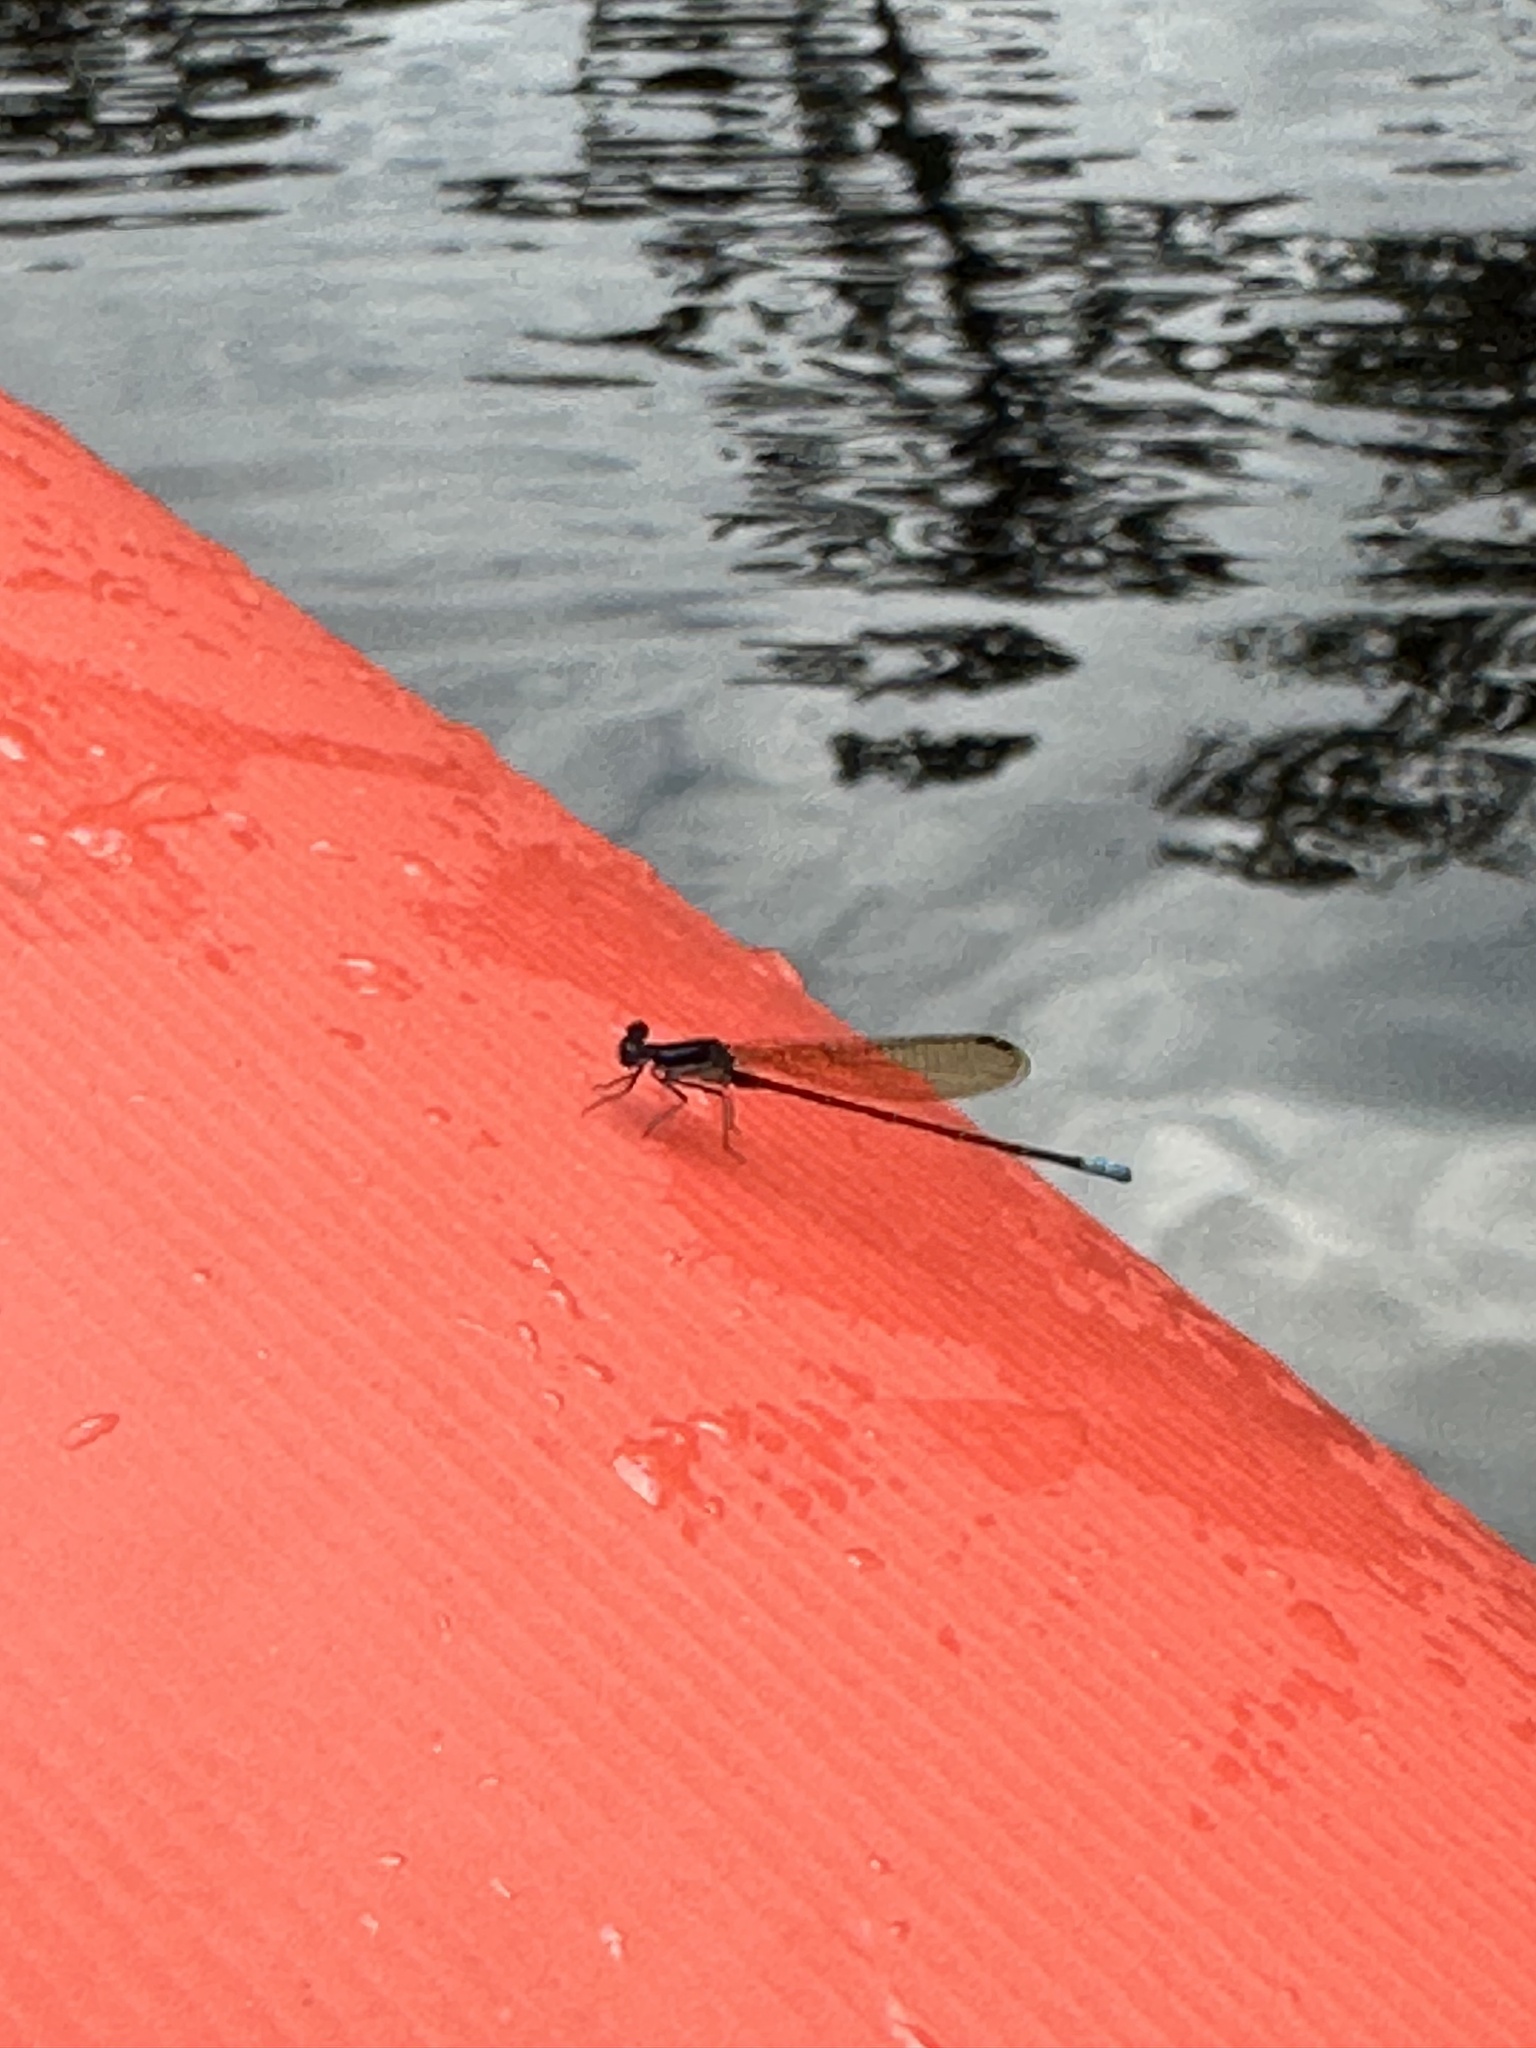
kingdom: Animalia
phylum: Arthropoda
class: Insecta
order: Odonata
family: Coenagrionidae
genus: Argia
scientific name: Argia sedula
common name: Blue-ringed dancer
